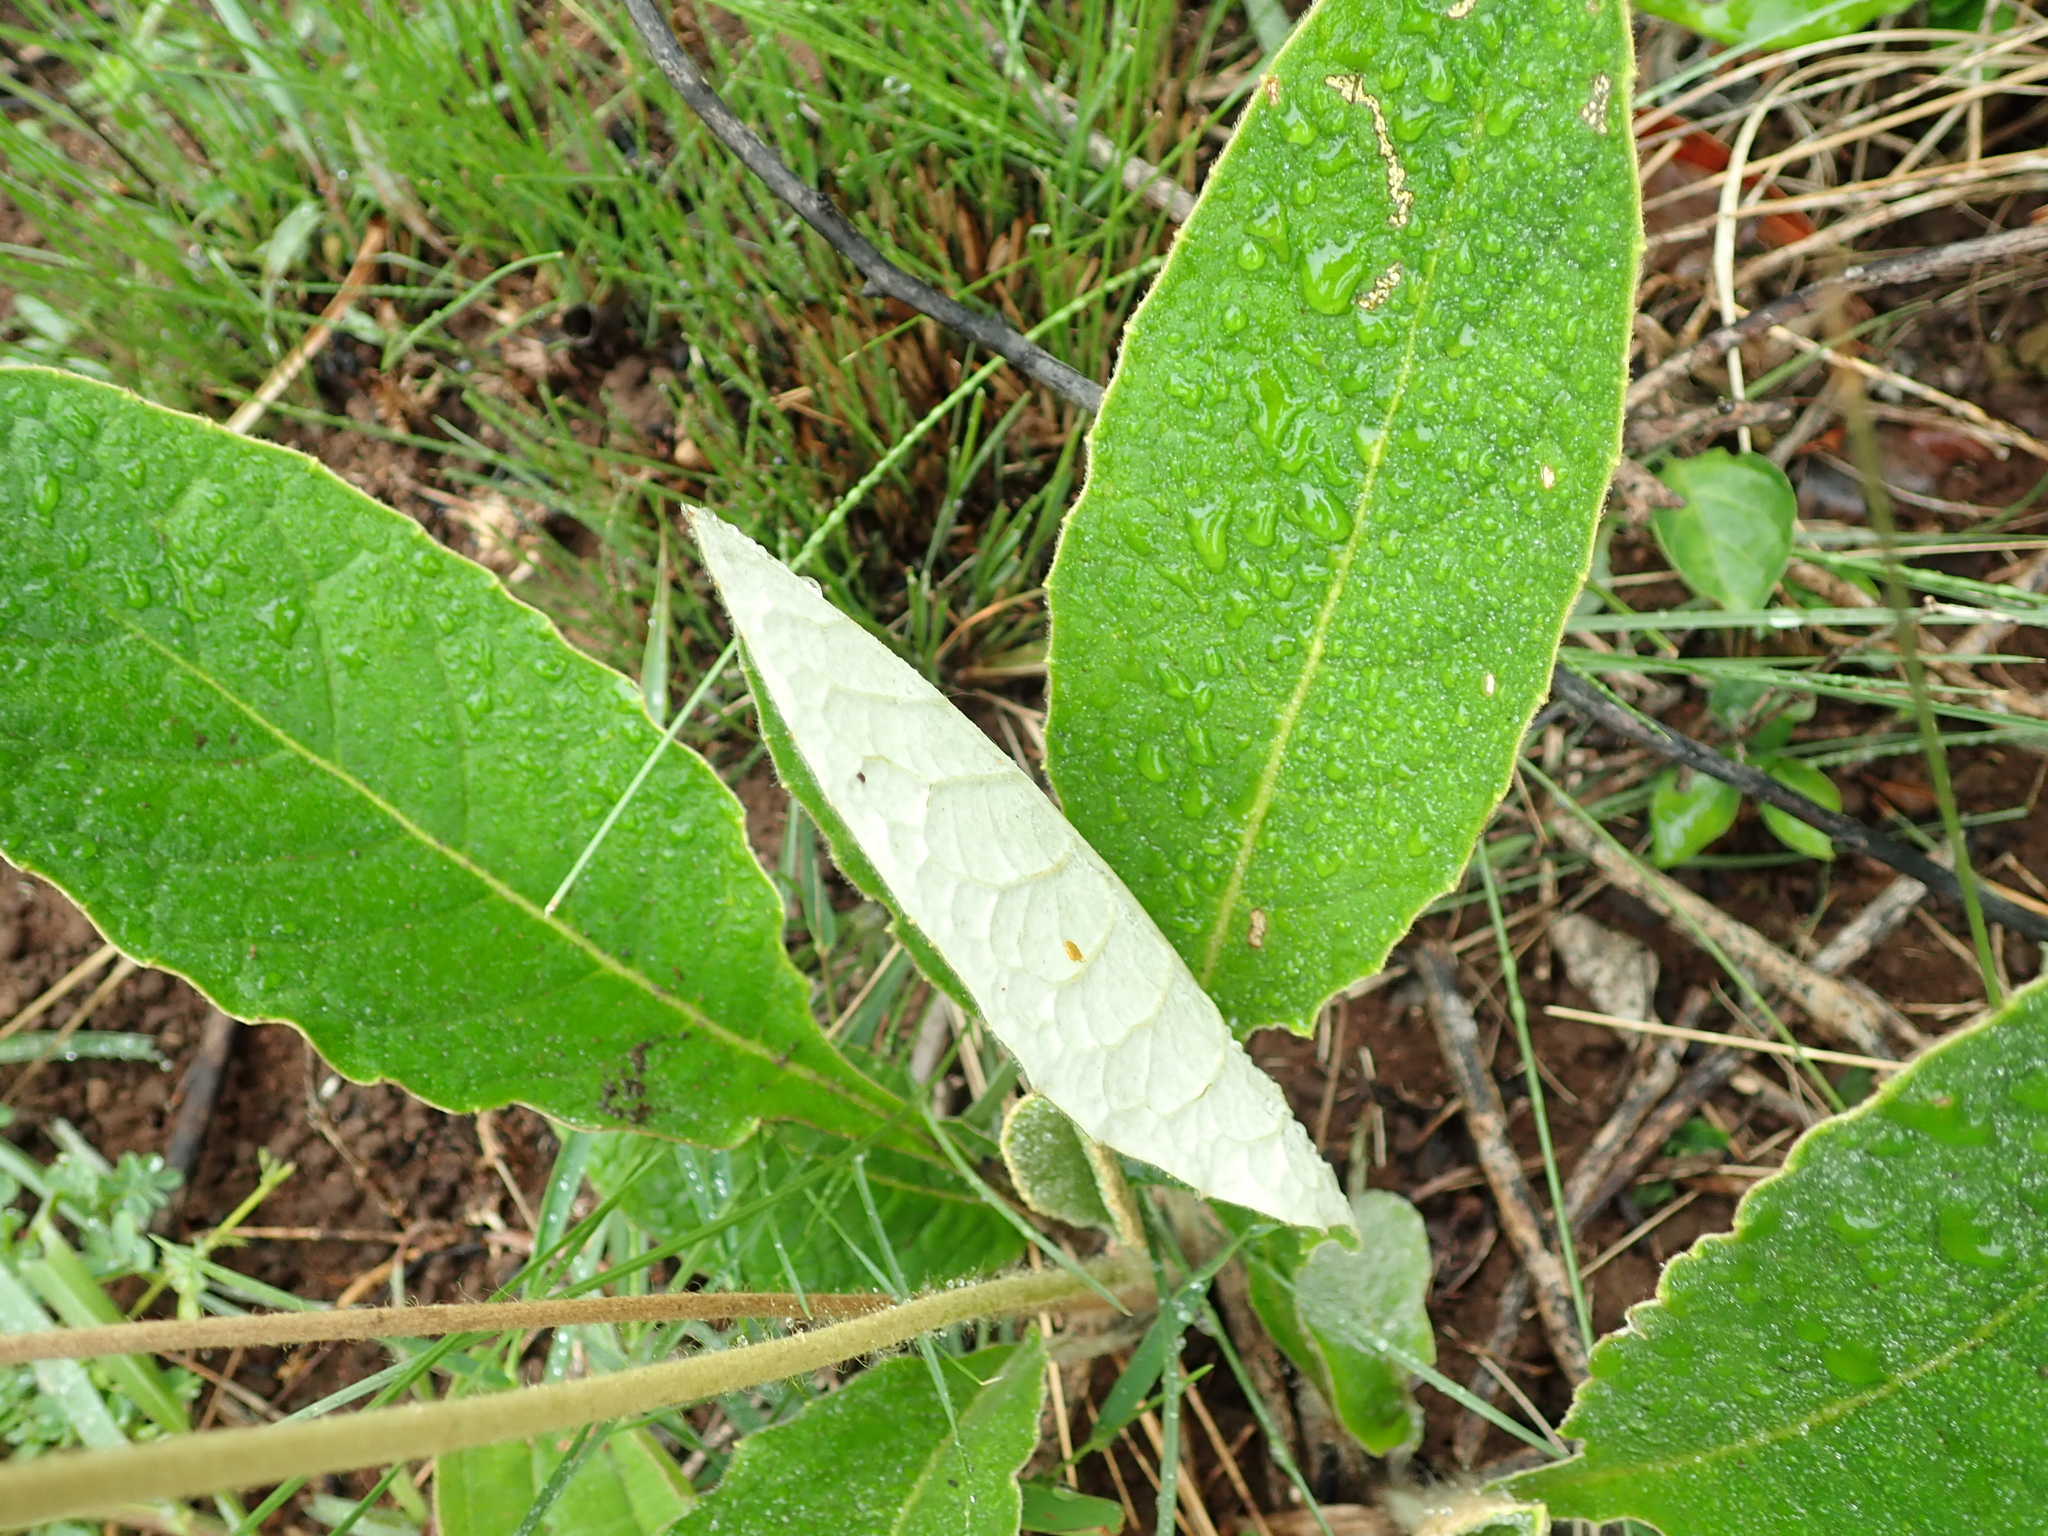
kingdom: Plantae
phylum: Tracheophyta
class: Magnoliopsida
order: Asterales
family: Asteraceae
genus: Gerbera
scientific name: Gerbera ambigua
